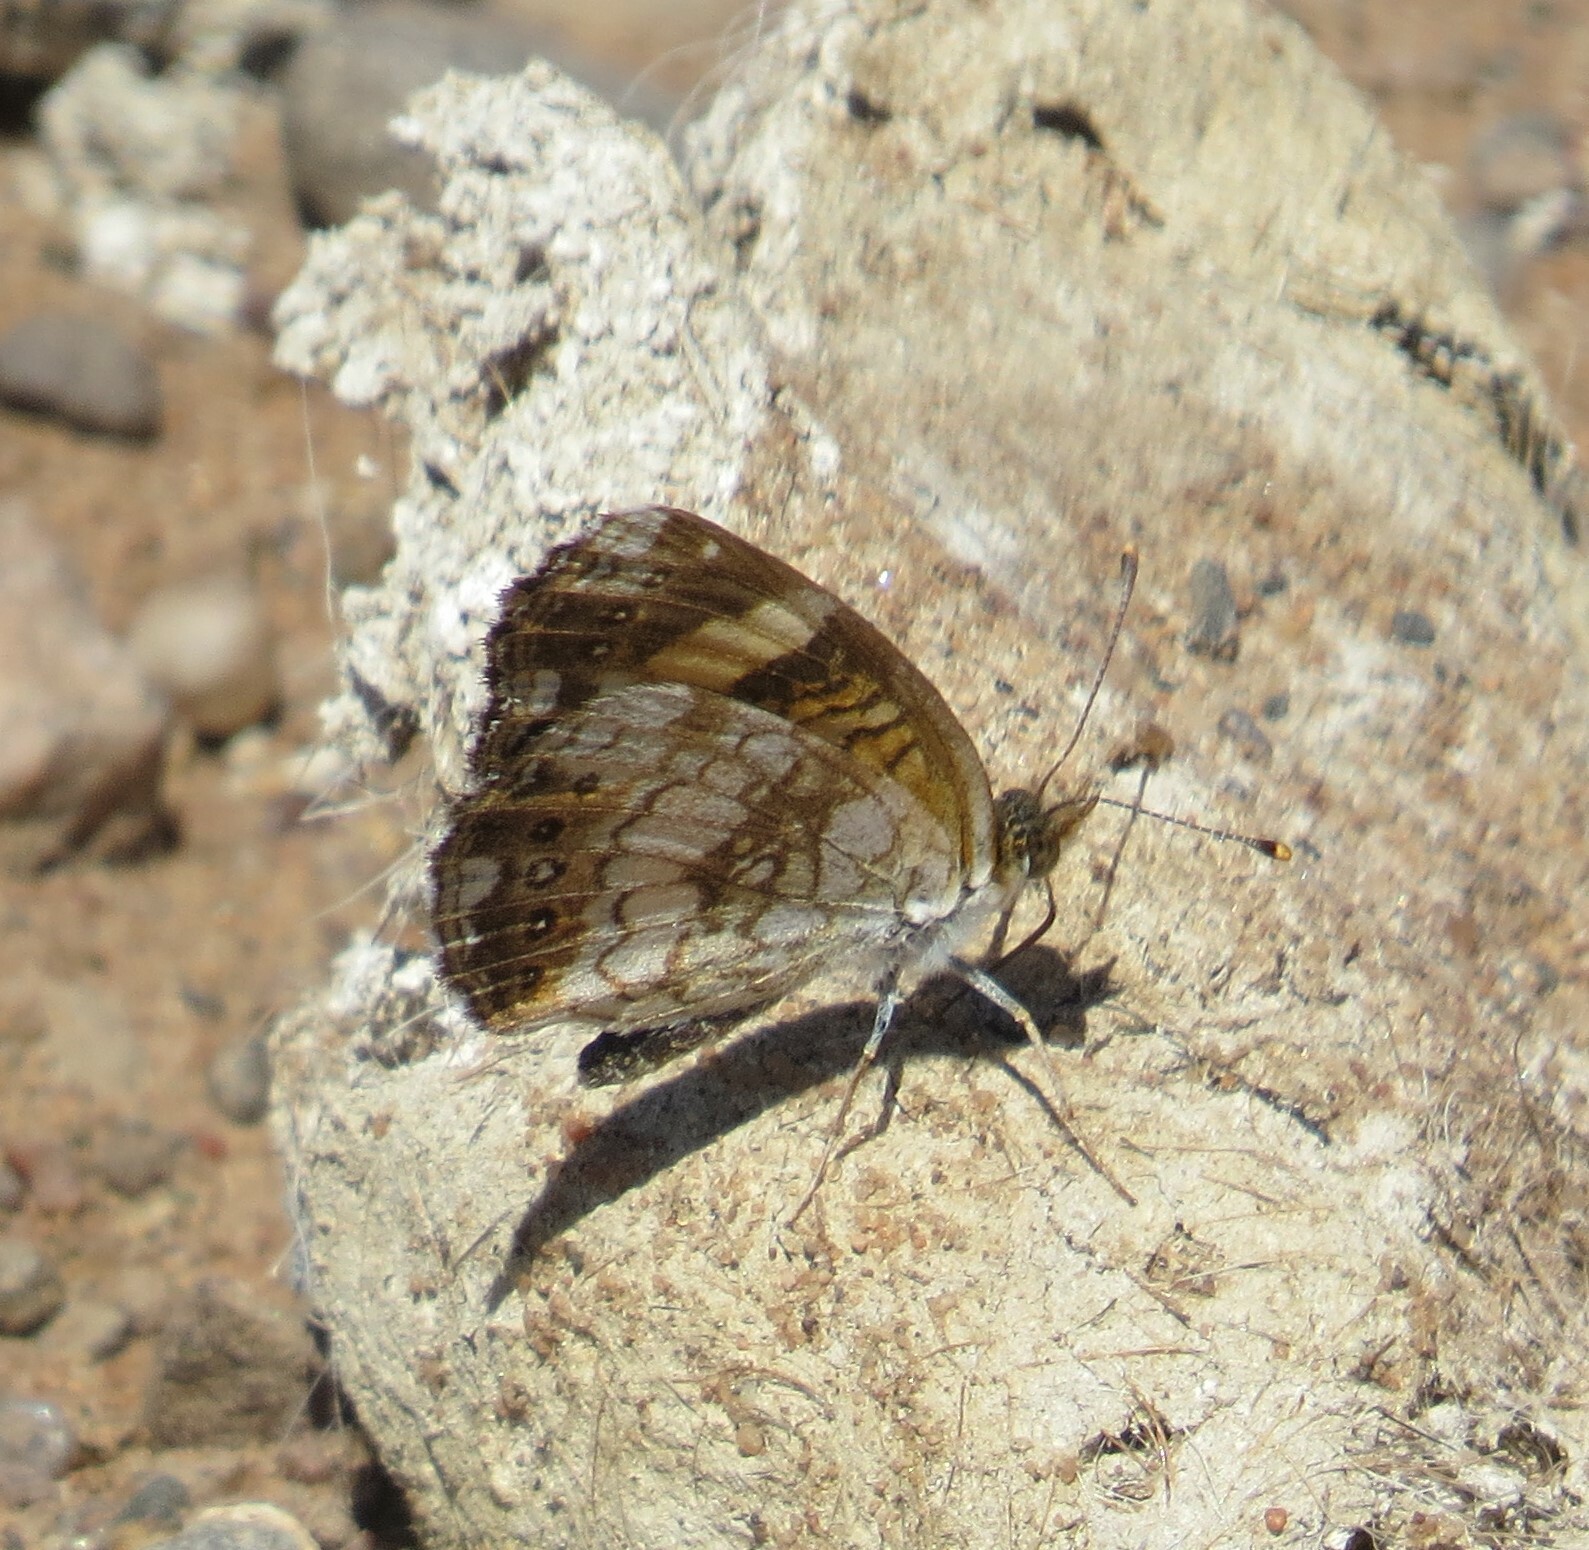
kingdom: Animalia
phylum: Arthropoda
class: Insecta
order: Lepidoptera
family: Nymphalidae
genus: Chlosyne
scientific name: Chlosyne nycteis
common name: Silvery checkerspot
